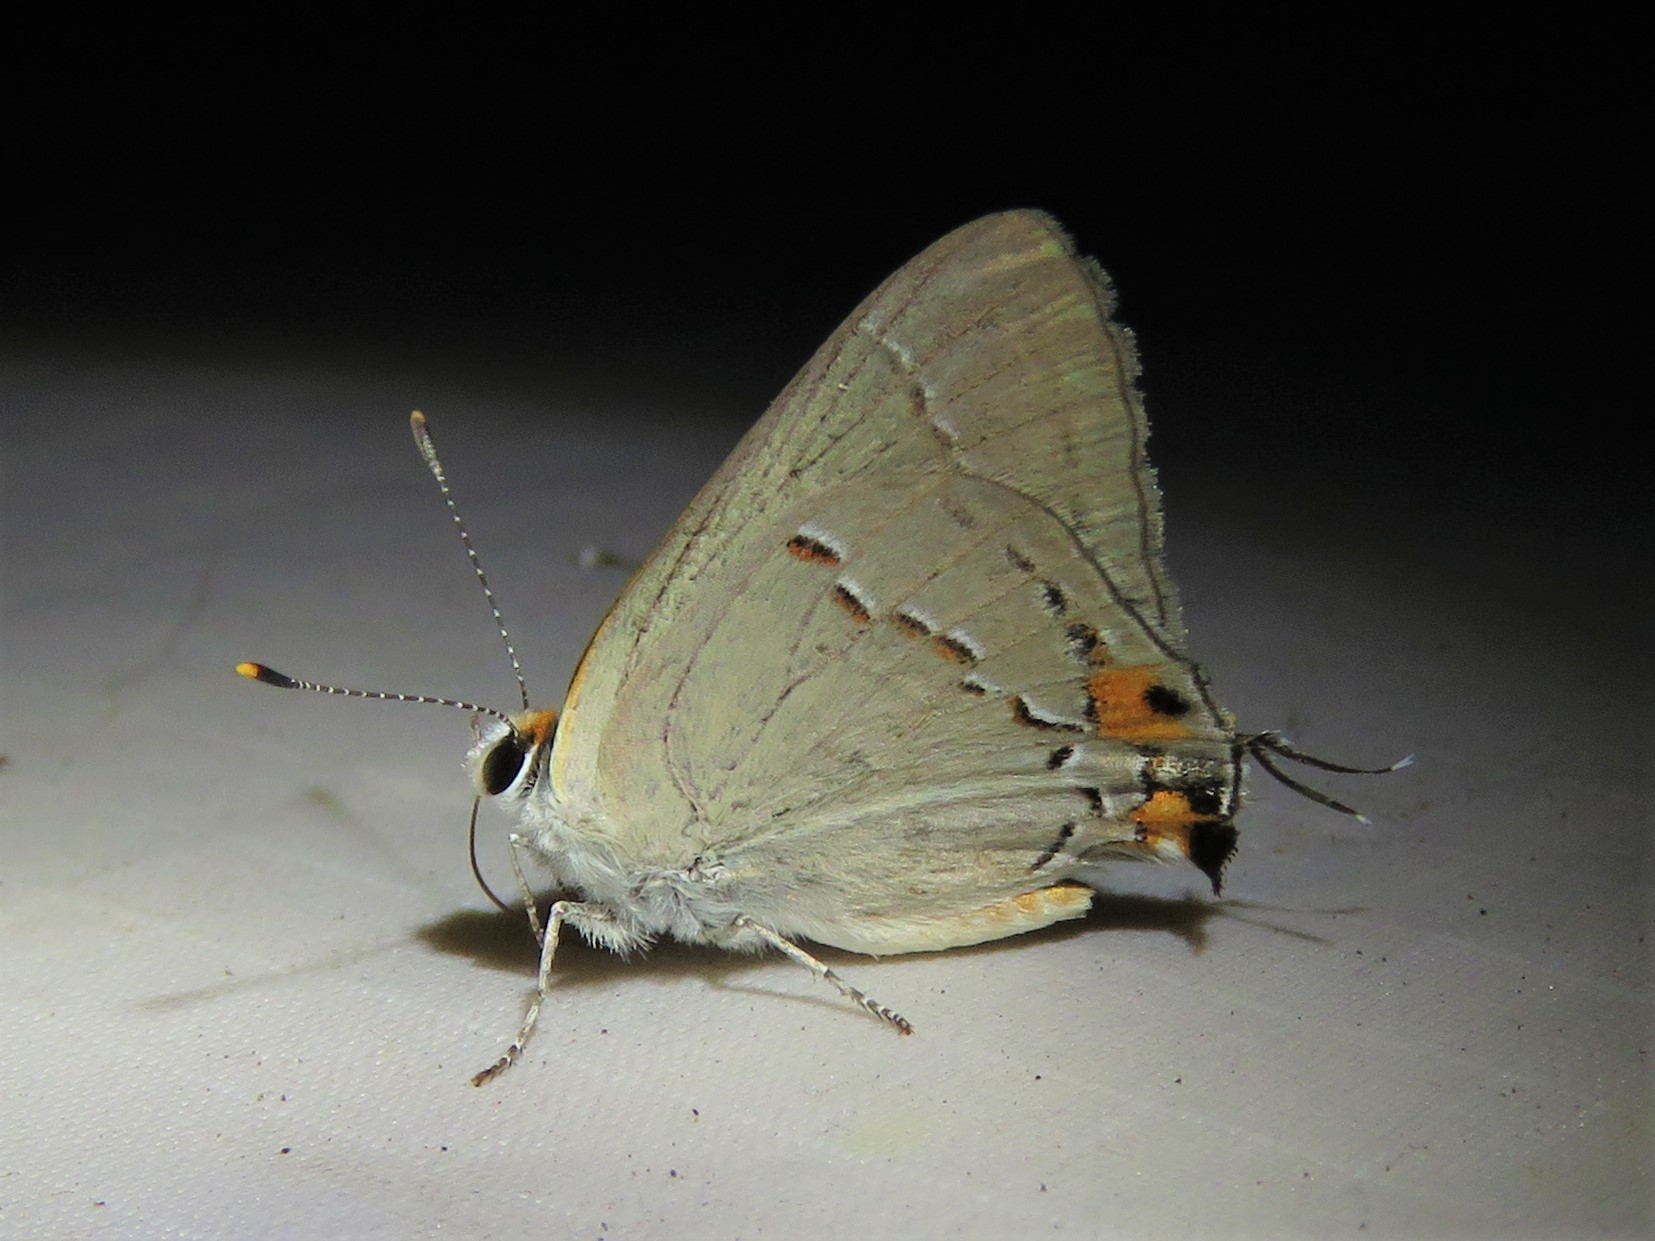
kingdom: Animalia
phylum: Arthropoda
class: Insecta
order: Lepidoptera
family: Lycaenidae
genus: Strymon
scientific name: Strymon melinus
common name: Gray hairstreak
